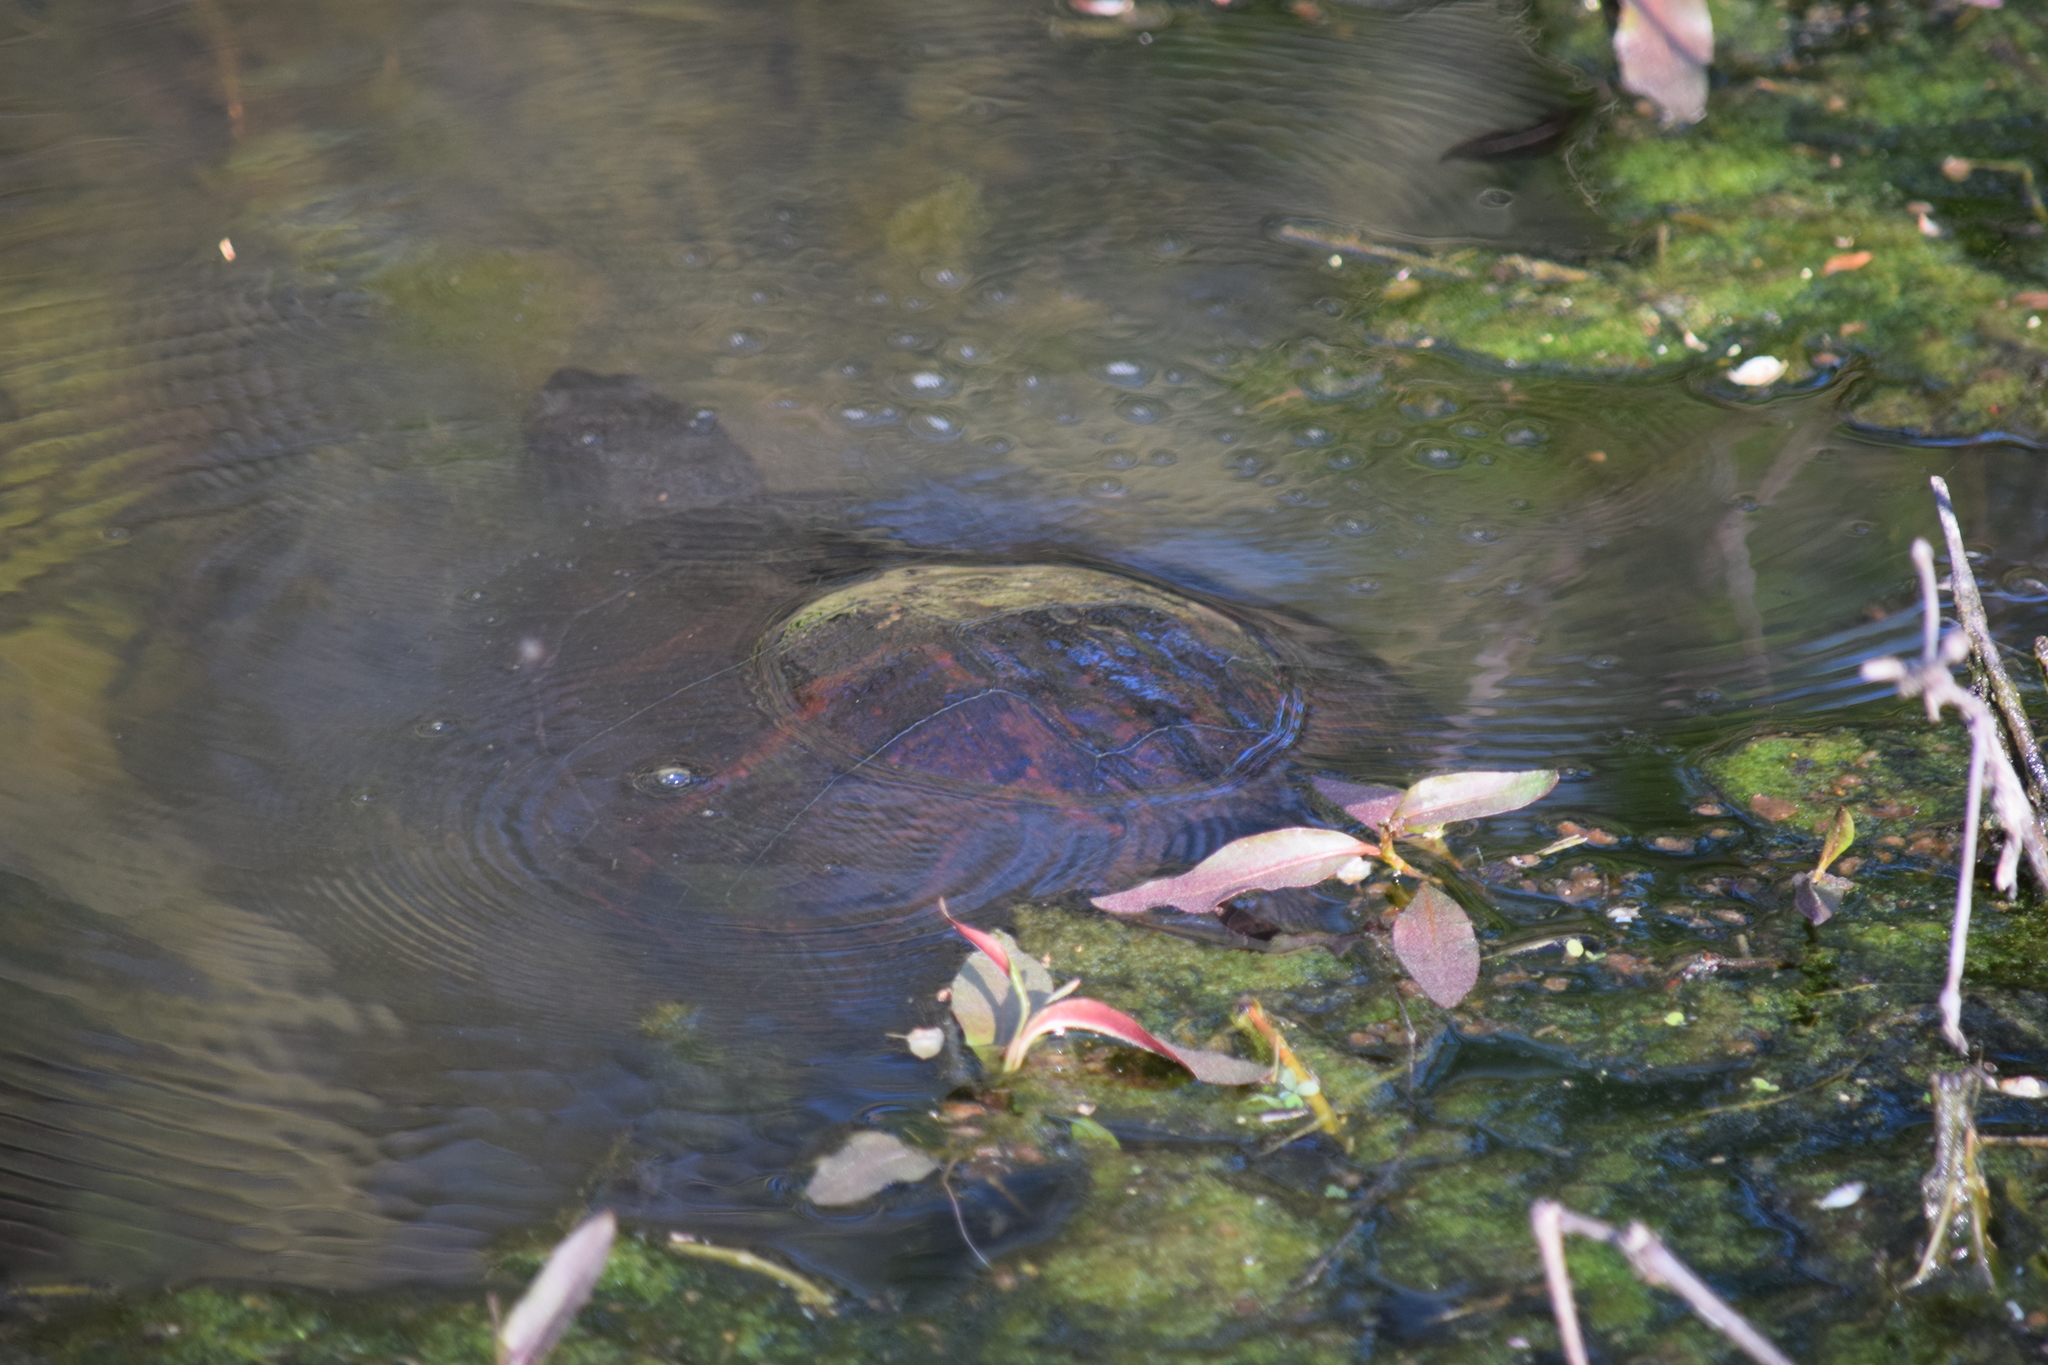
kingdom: Animalia
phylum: Chordata
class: Testudines
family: Emydidae
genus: Pseudemys
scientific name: Pseudemys rubriventris
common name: American red-bellied turtle
